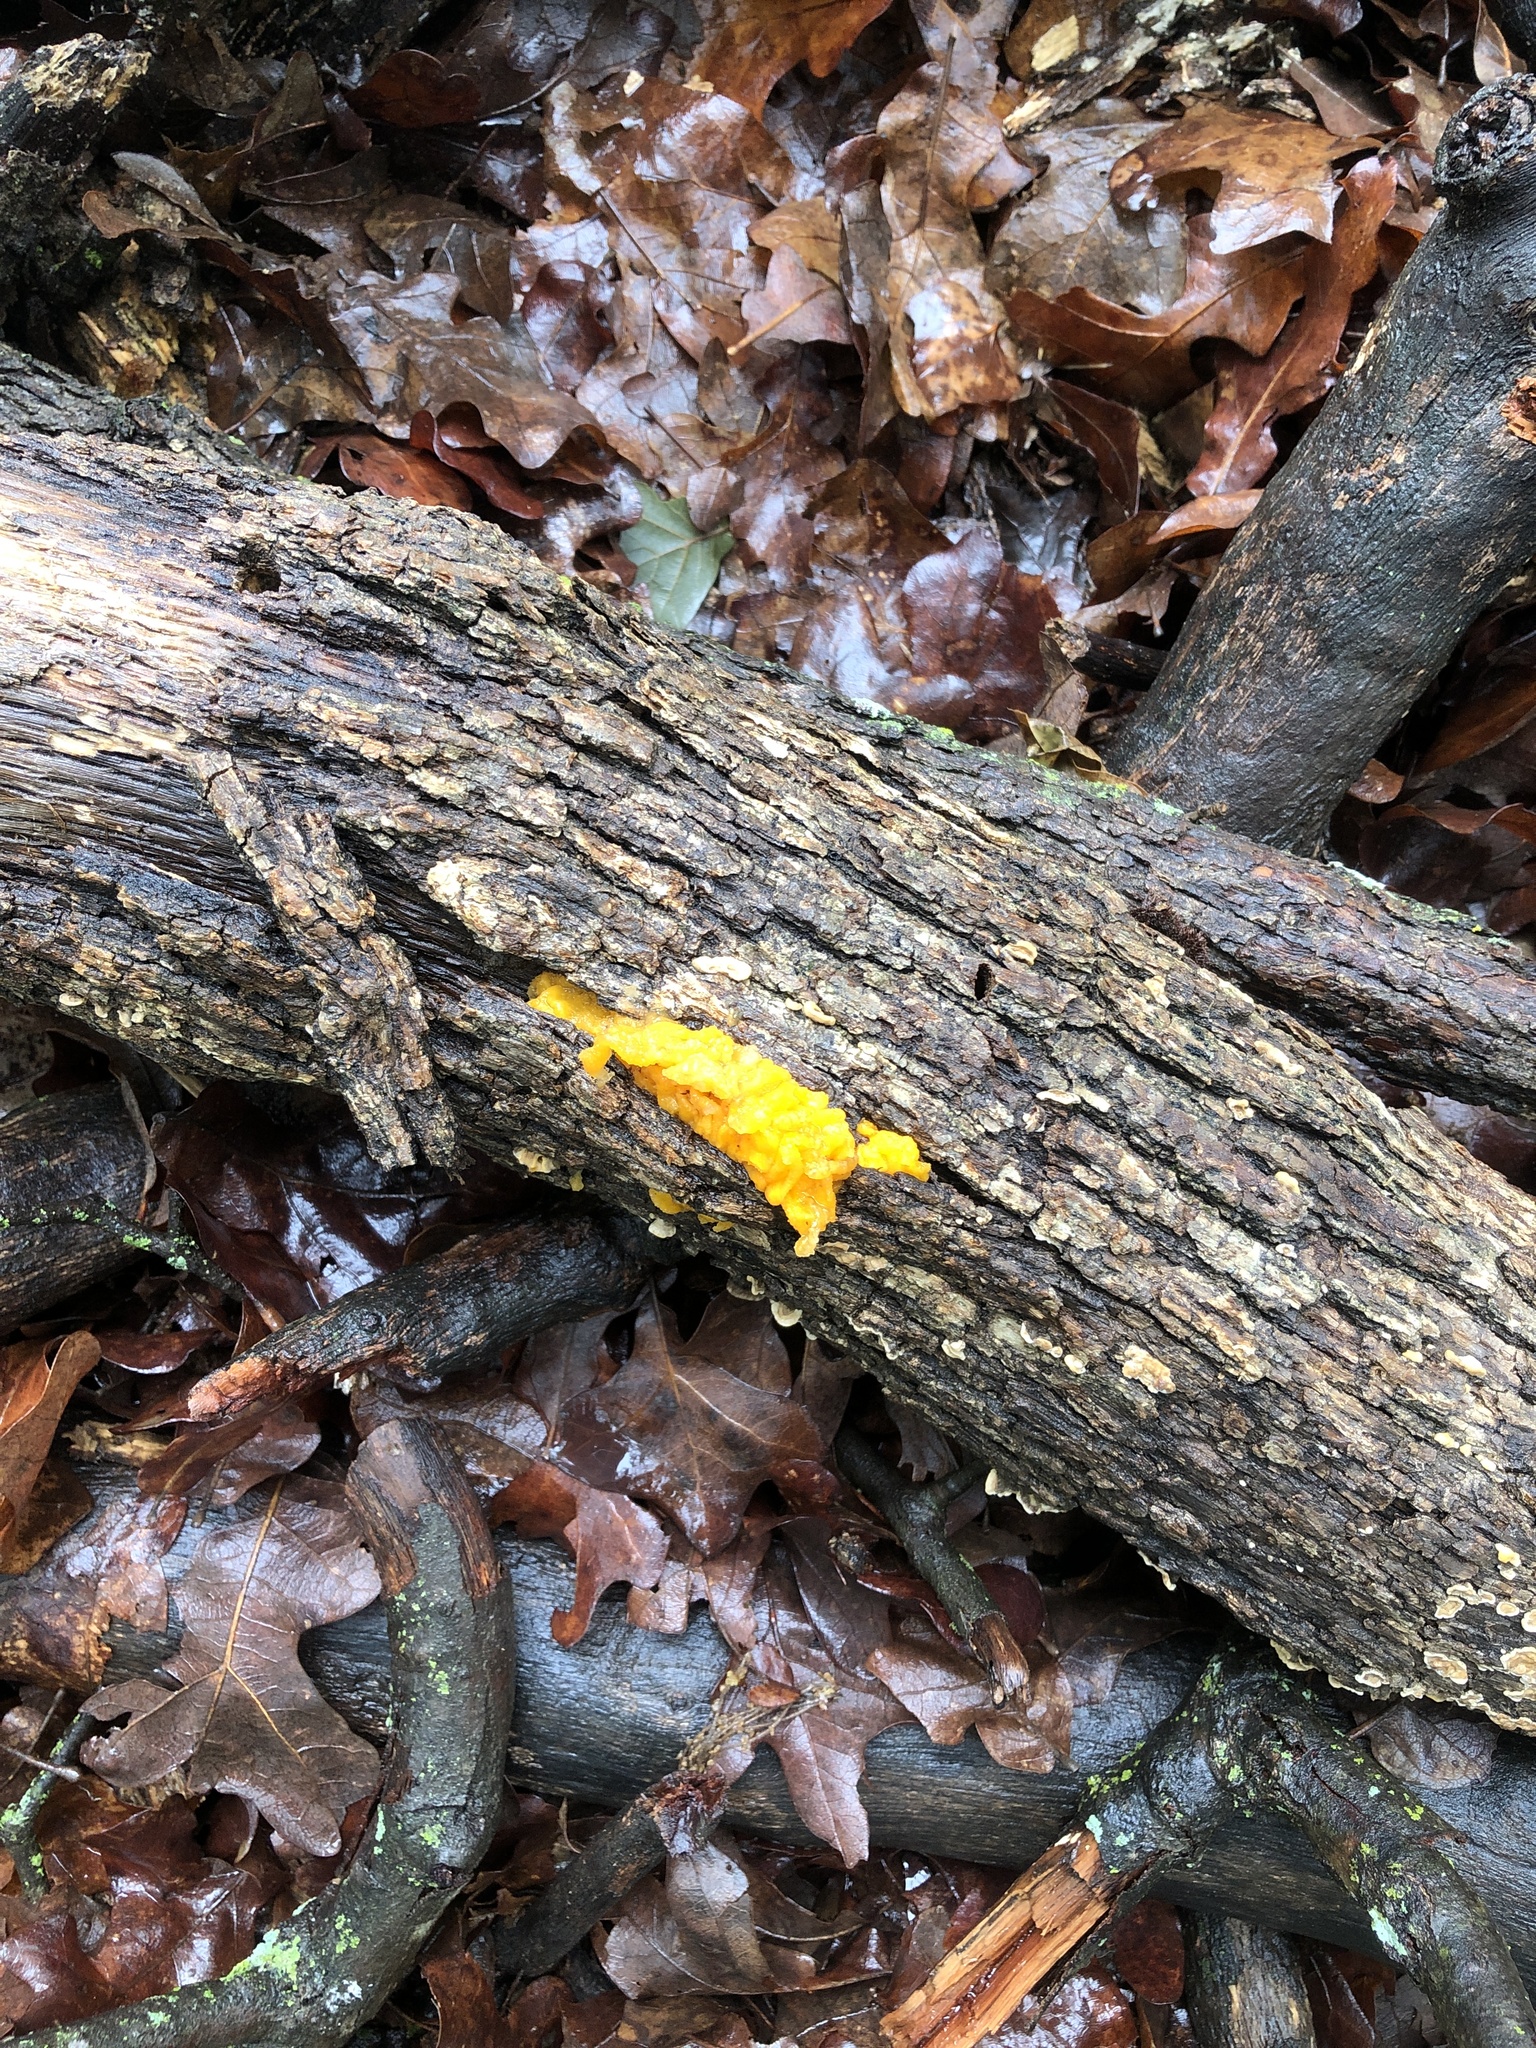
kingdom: Fungi
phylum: Basidiomycota
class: Tremellomycetes
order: Tremellales
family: Naemateliaceae
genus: Naematelia
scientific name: Naematelia aurantia
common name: Golden ear
